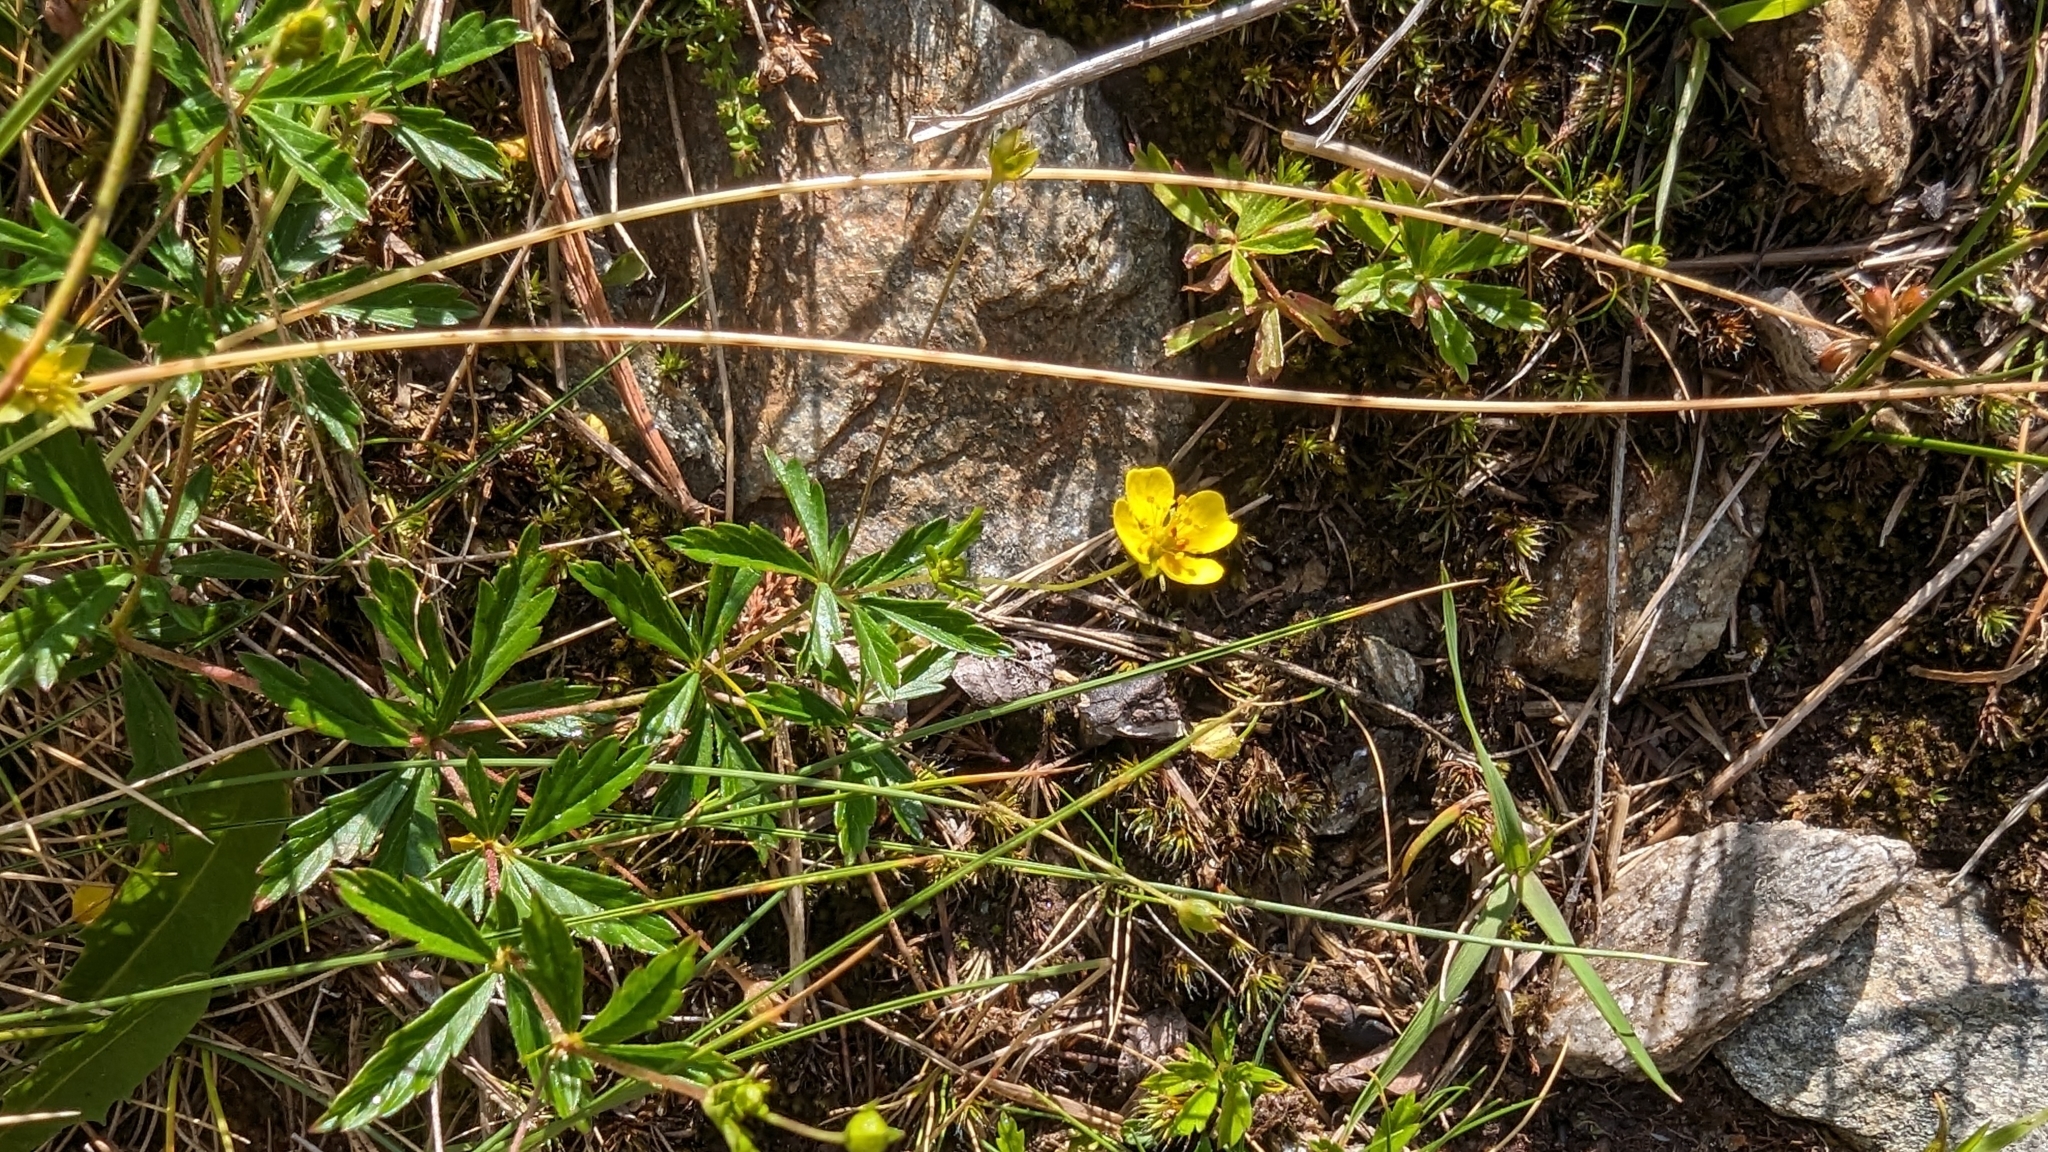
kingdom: Plantae
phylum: Tracheophyta
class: Magnoliopsida
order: Rosales
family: Rosaceae
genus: Potentilla
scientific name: Potentilla erecta
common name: Tormentil
